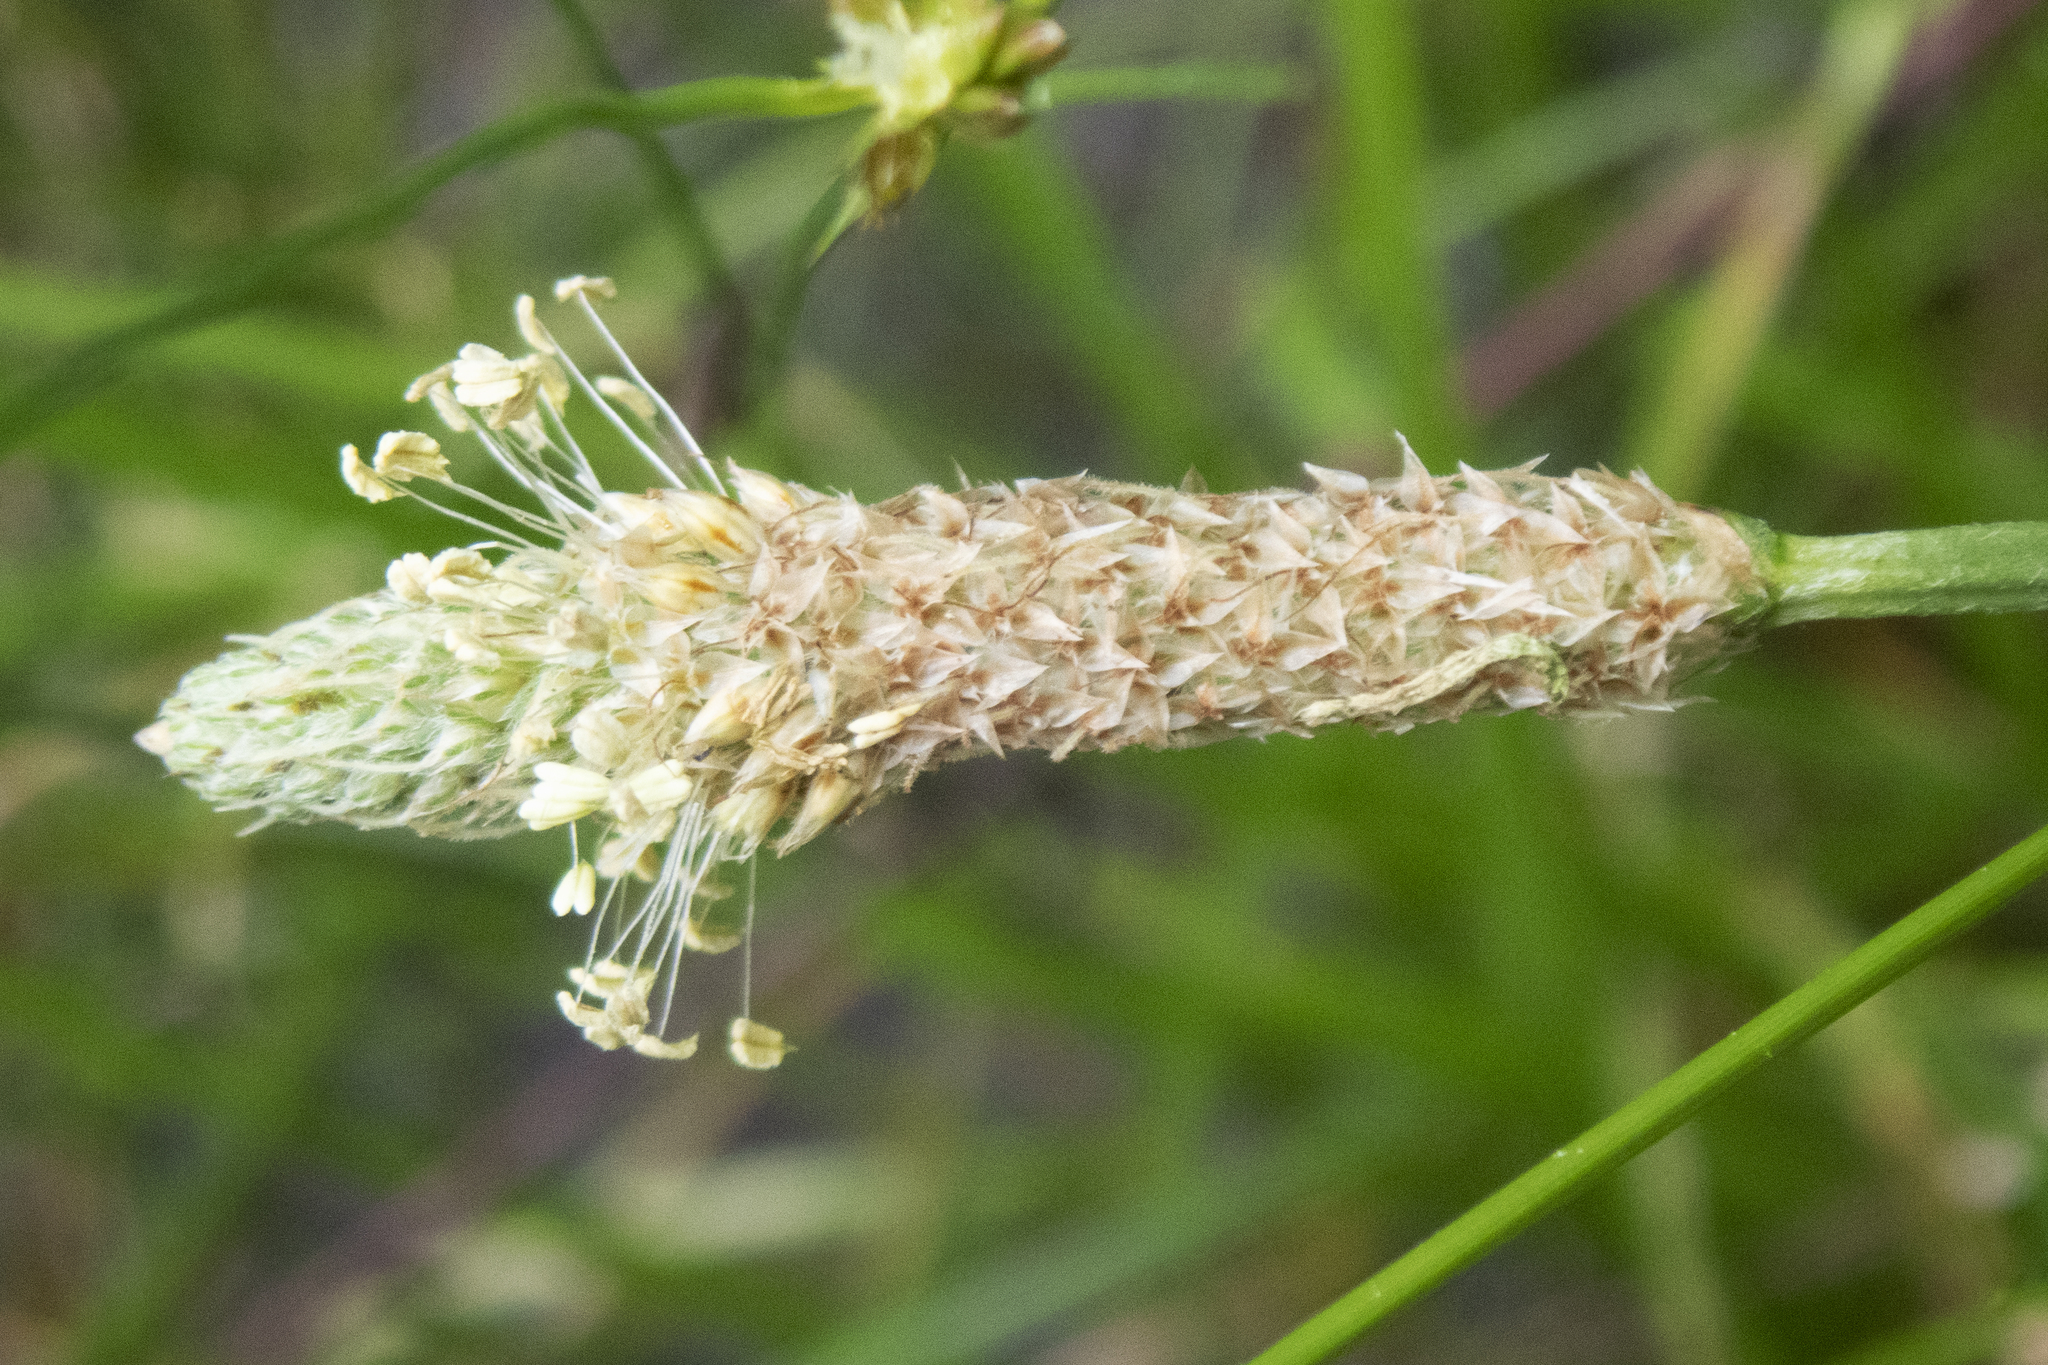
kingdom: Plantae
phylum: Tracheophyta
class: Magnoliopsida
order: Lamiales
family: Plantaginaceae
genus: Plantago
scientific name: Plantago lanceolata
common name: Ribwort plantain
